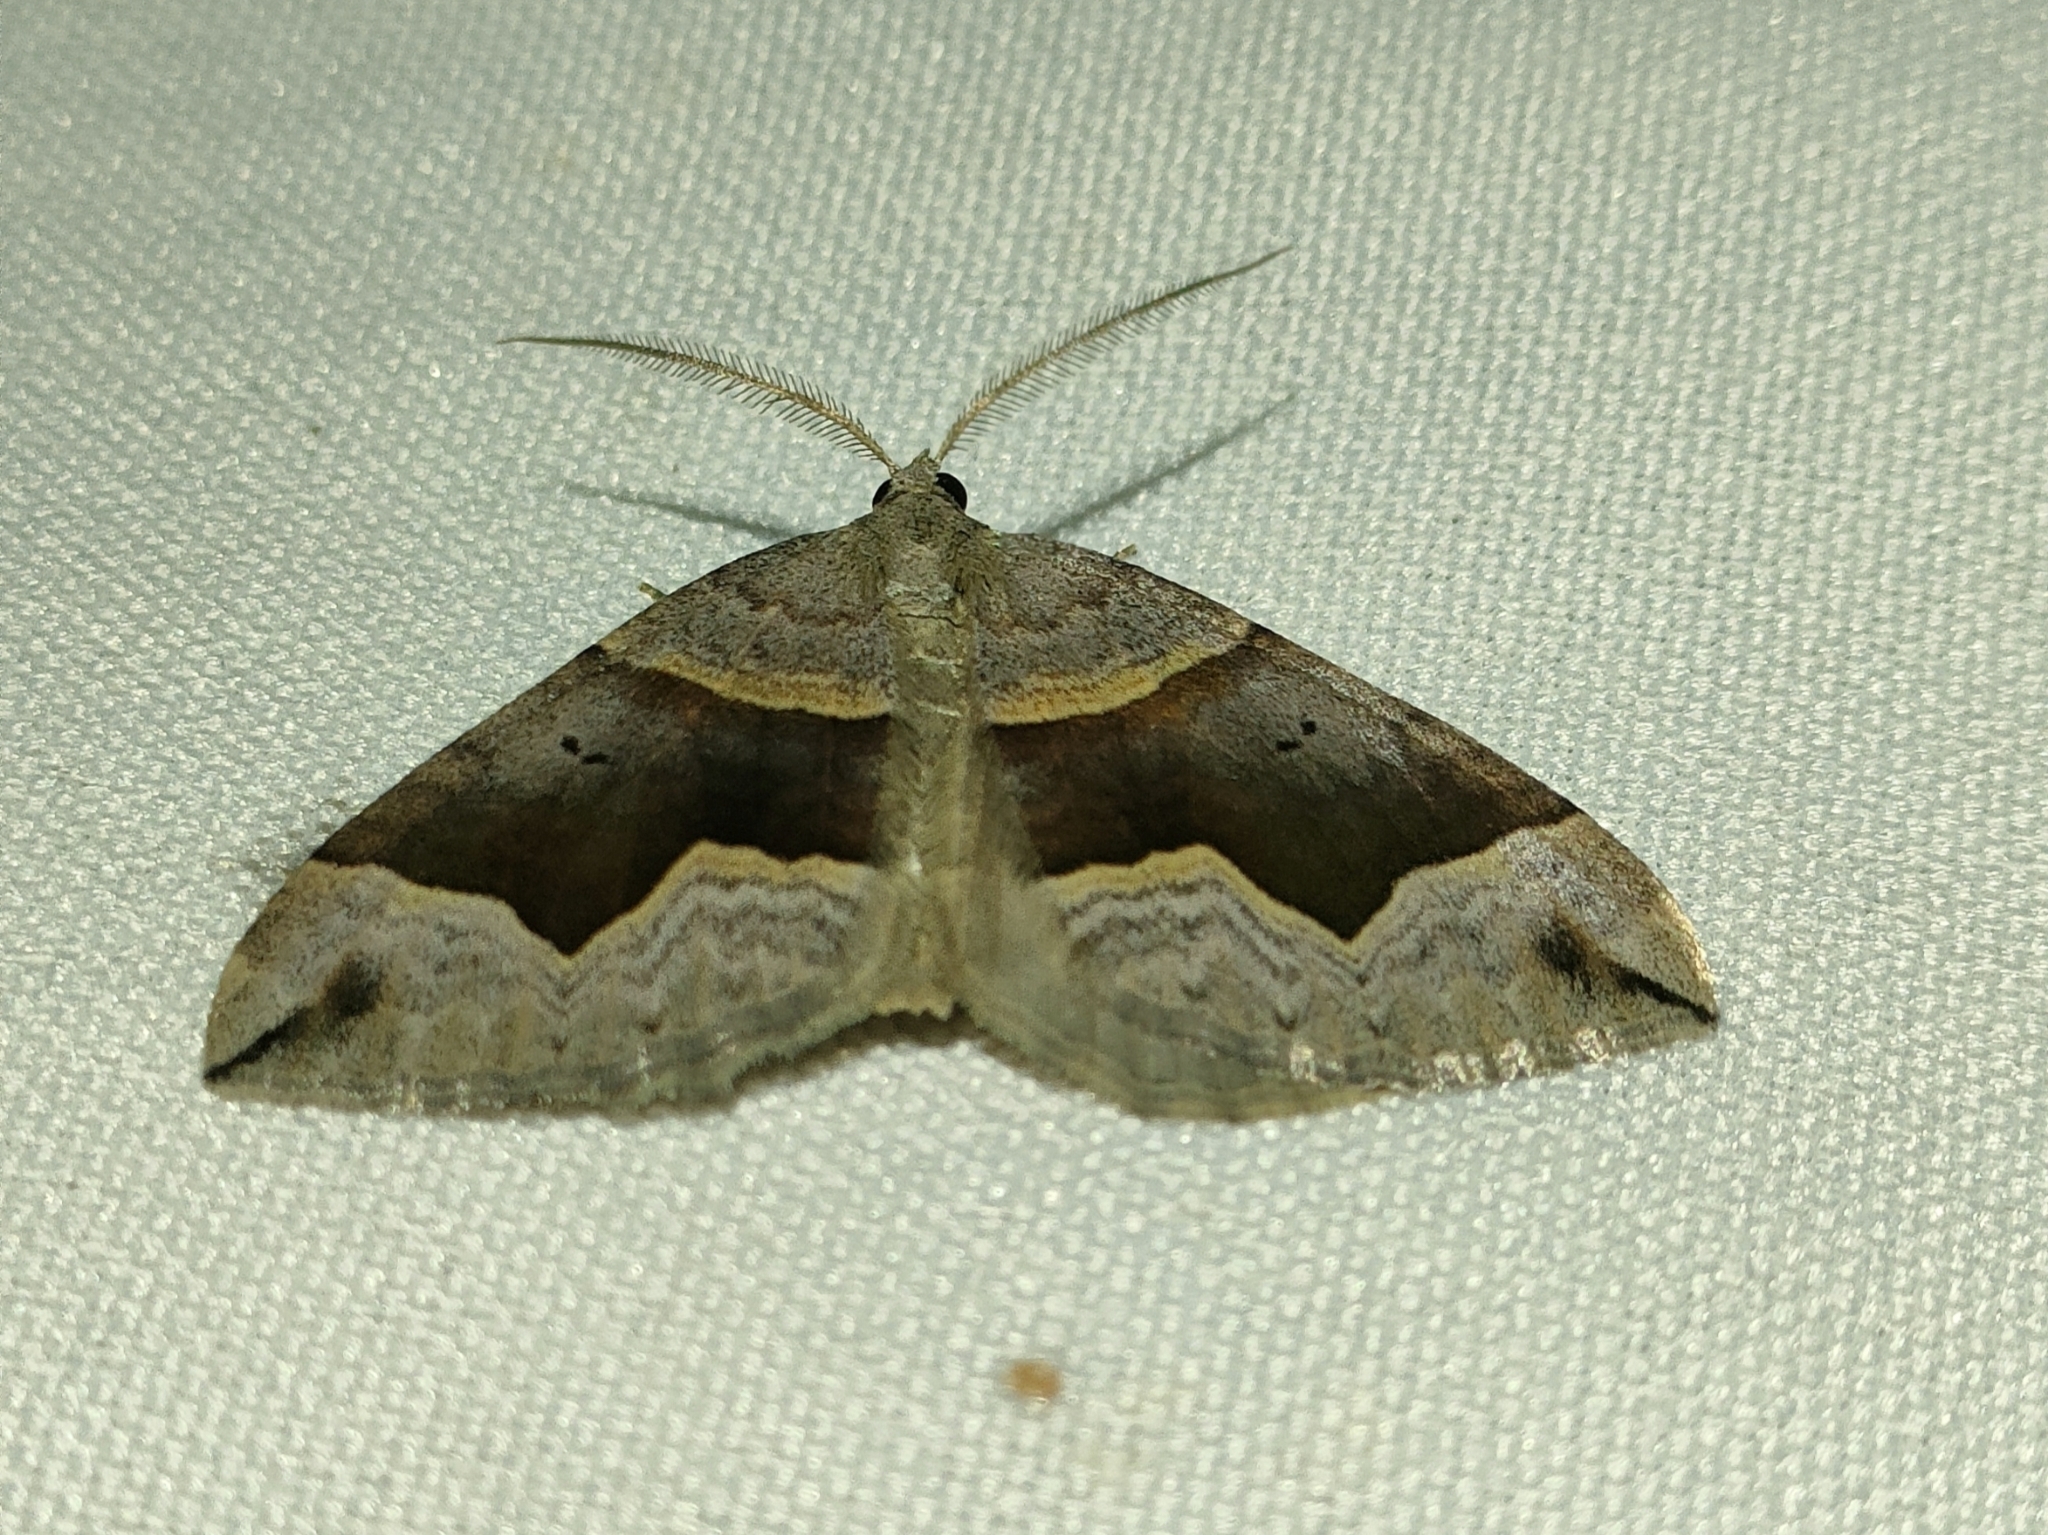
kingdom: Animalia
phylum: Arthropoda
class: Insecta
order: Lepidoptera
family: Geometridae
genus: Scotopteryx
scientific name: Scotopteryx moeniata
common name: Fortified carpet
